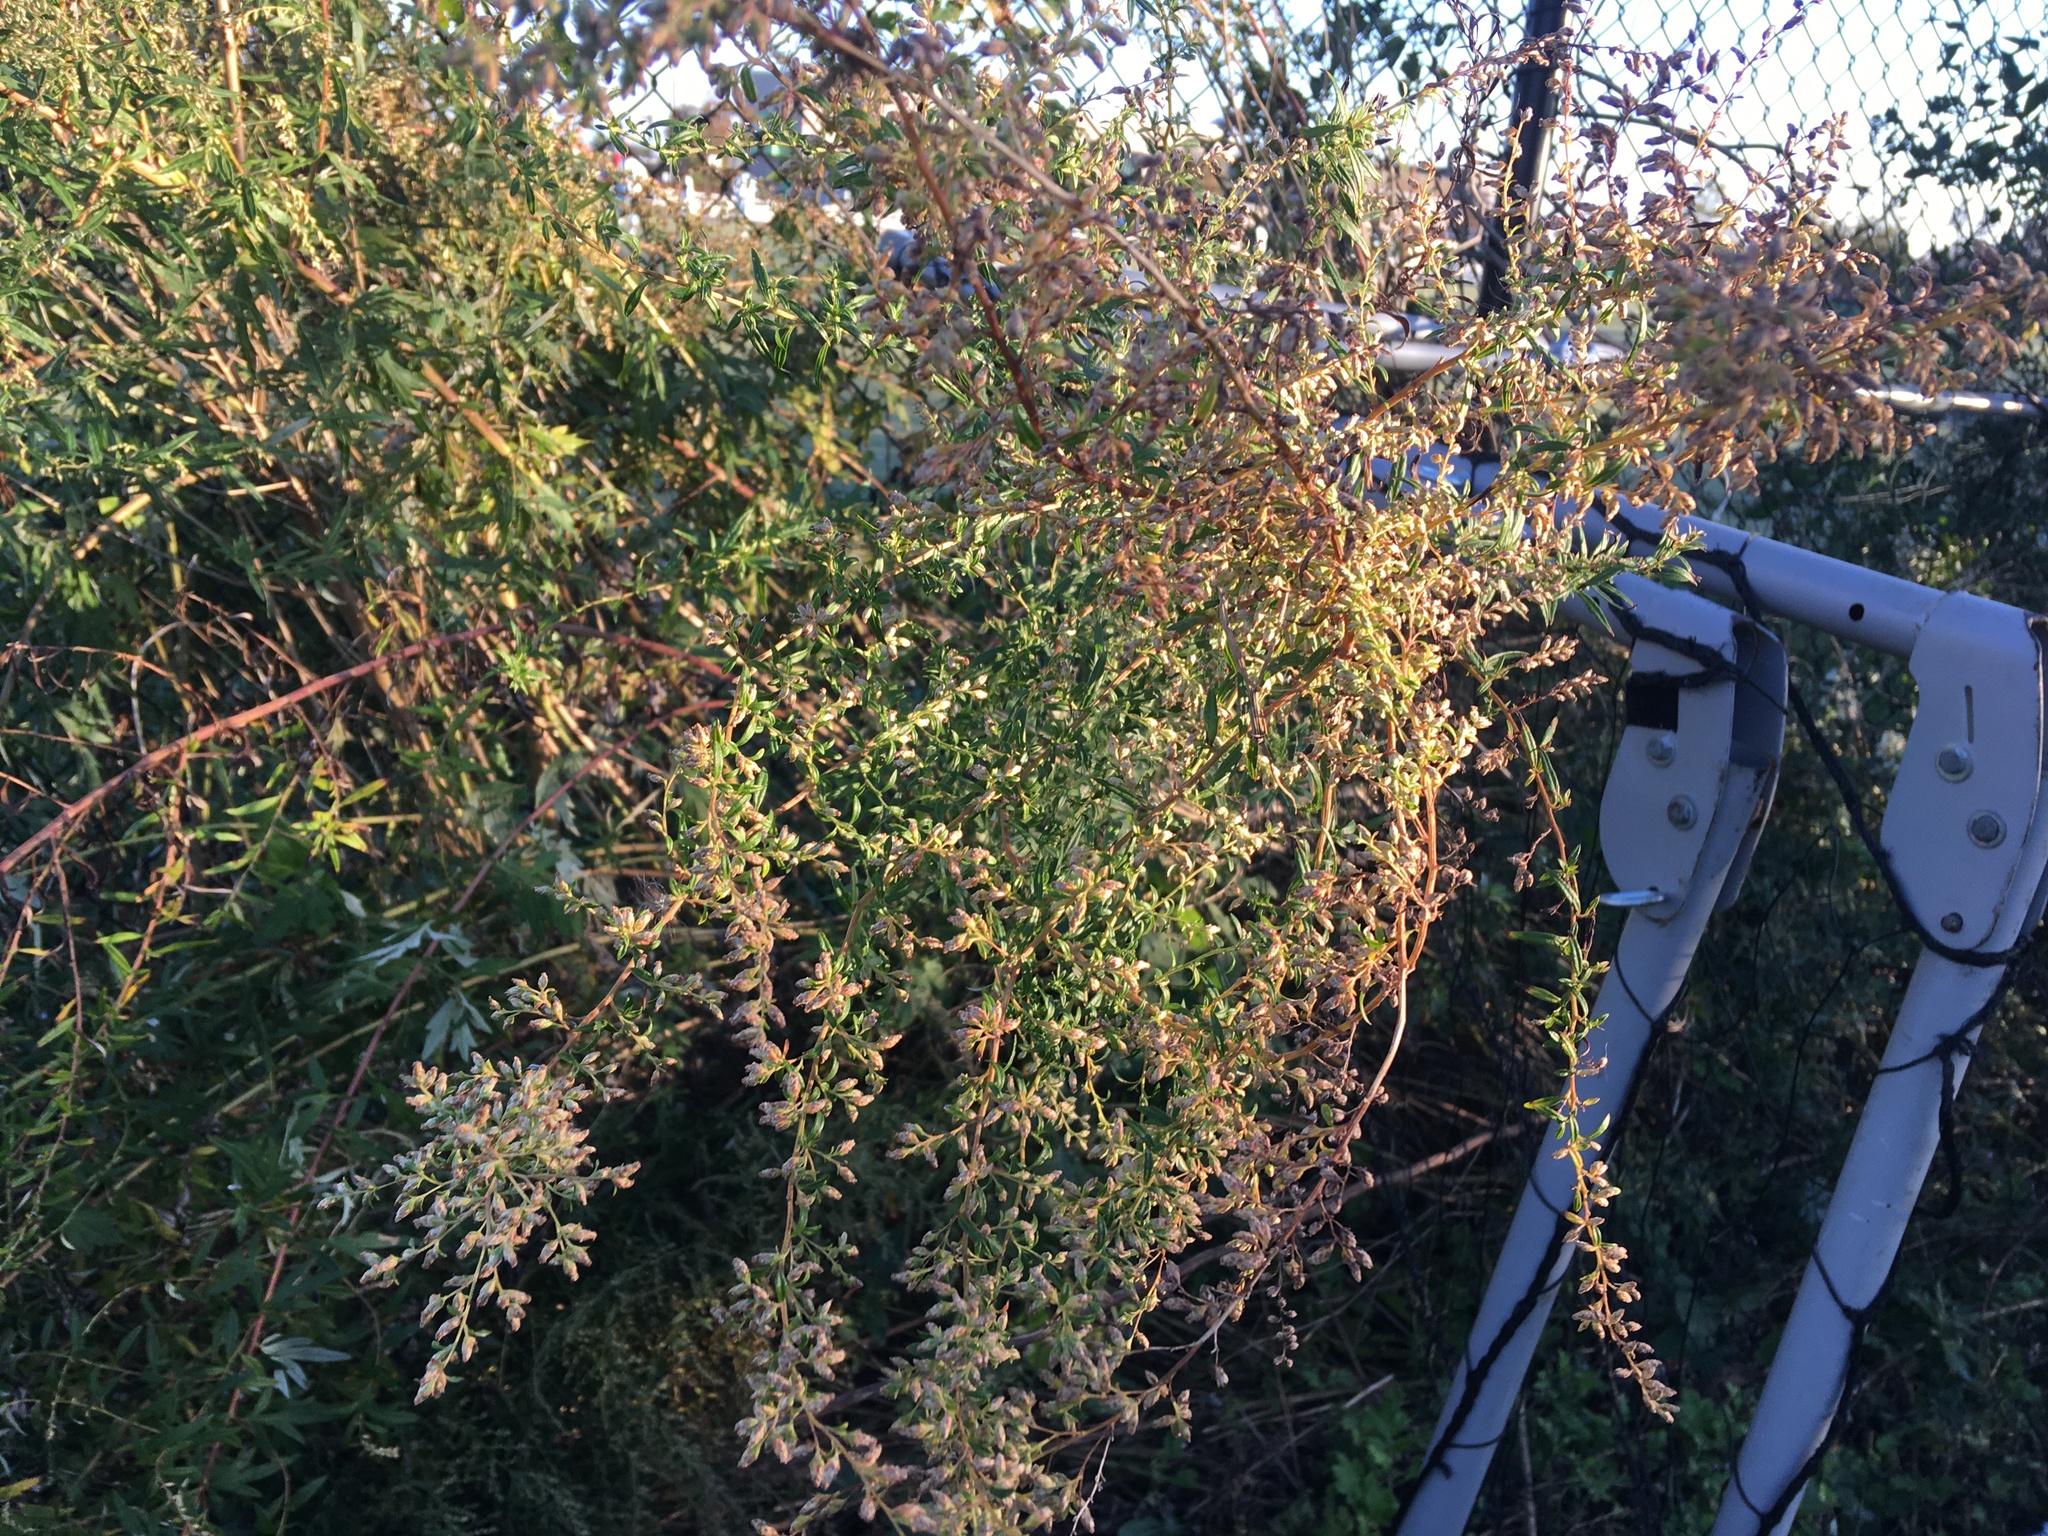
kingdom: Plantae
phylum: Tracheophyta
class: Magnoliopsida
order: Asterales
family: Asteraceae
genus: Artemisia
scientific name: Artemisia vulgaris
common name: Mugwort
